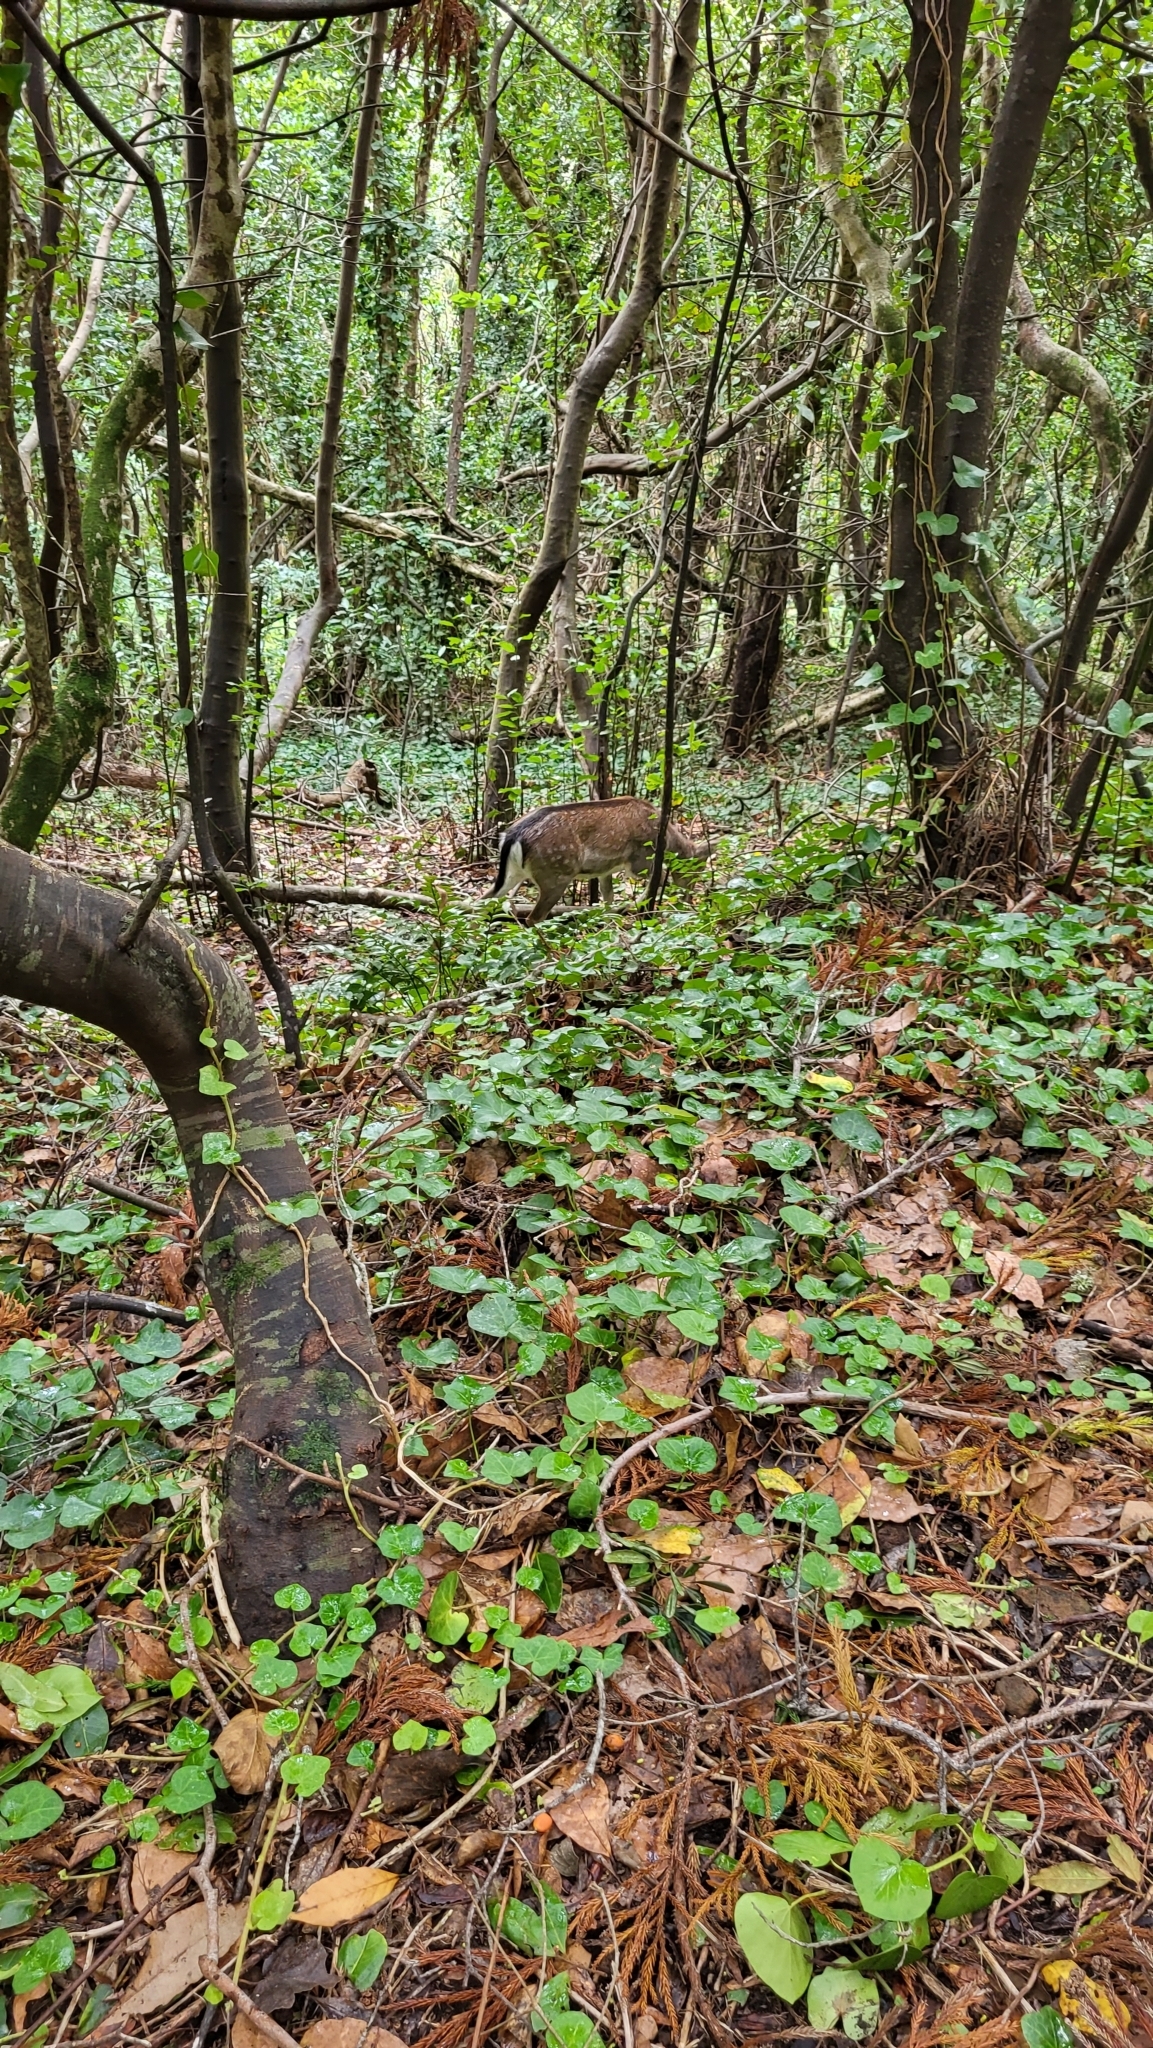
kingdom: Animalia
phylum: Chordata
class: Mammalia
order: Artiodactyla
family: Cervidae
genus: Dama
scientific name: Dama dama
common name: Fallow deer
